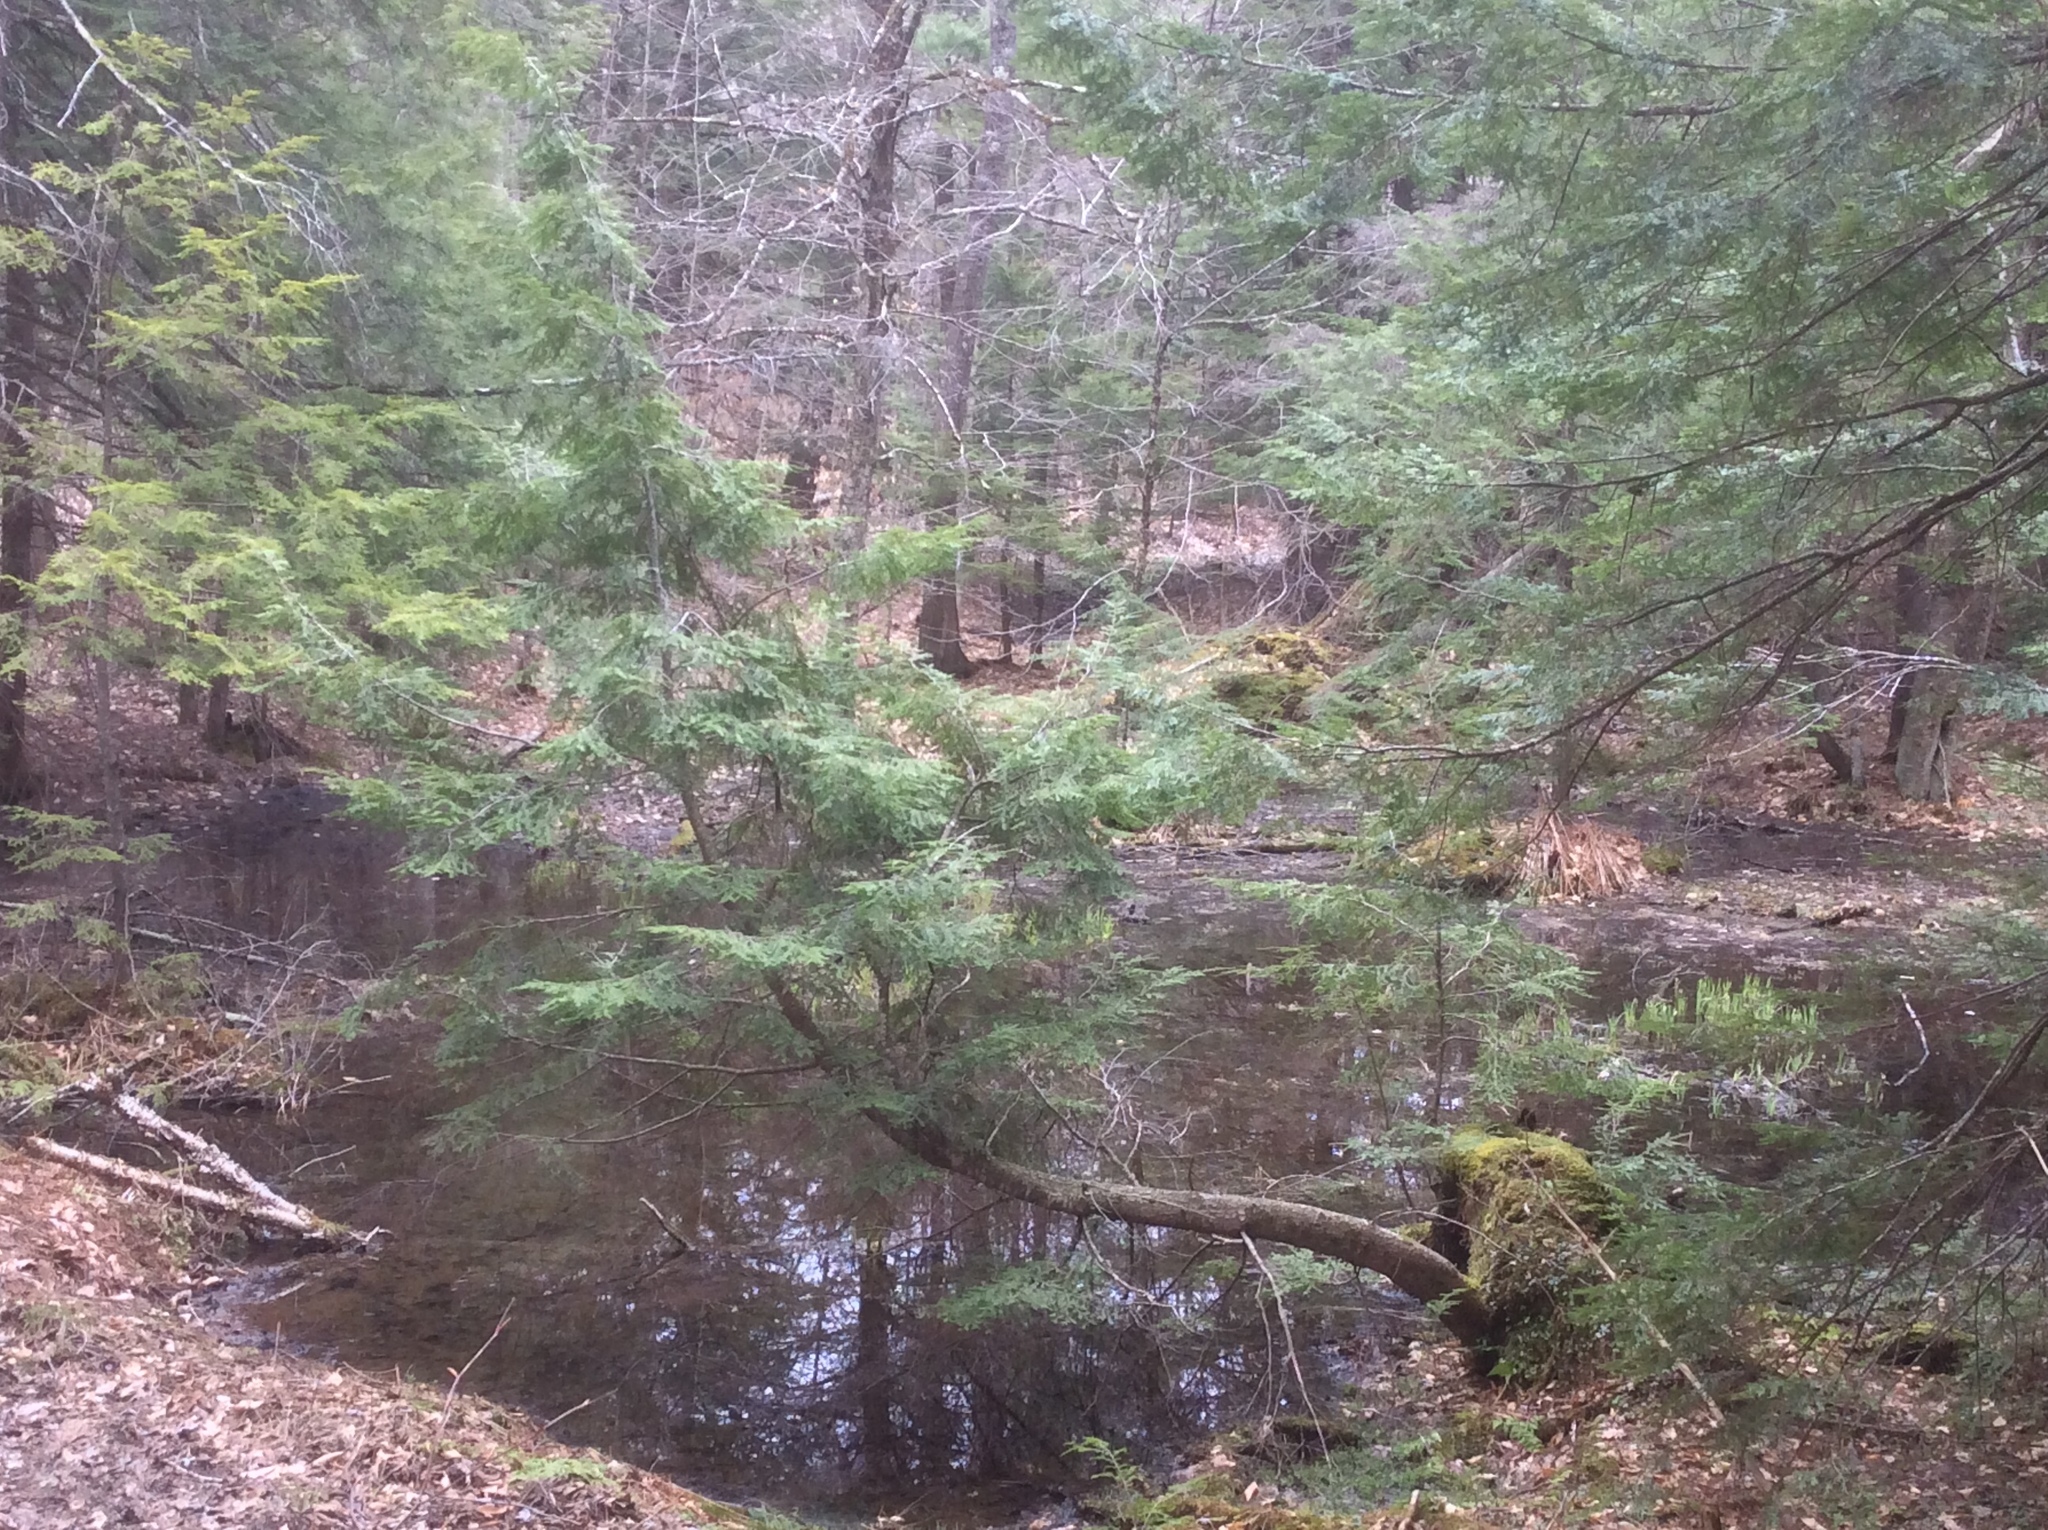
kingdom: Plantae
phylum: Tracheophyta
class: Pinopsida
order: Pinales
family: Pinaceae
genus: Tsuga
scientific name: Tsuga canadensis
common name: Eastern hemlock
